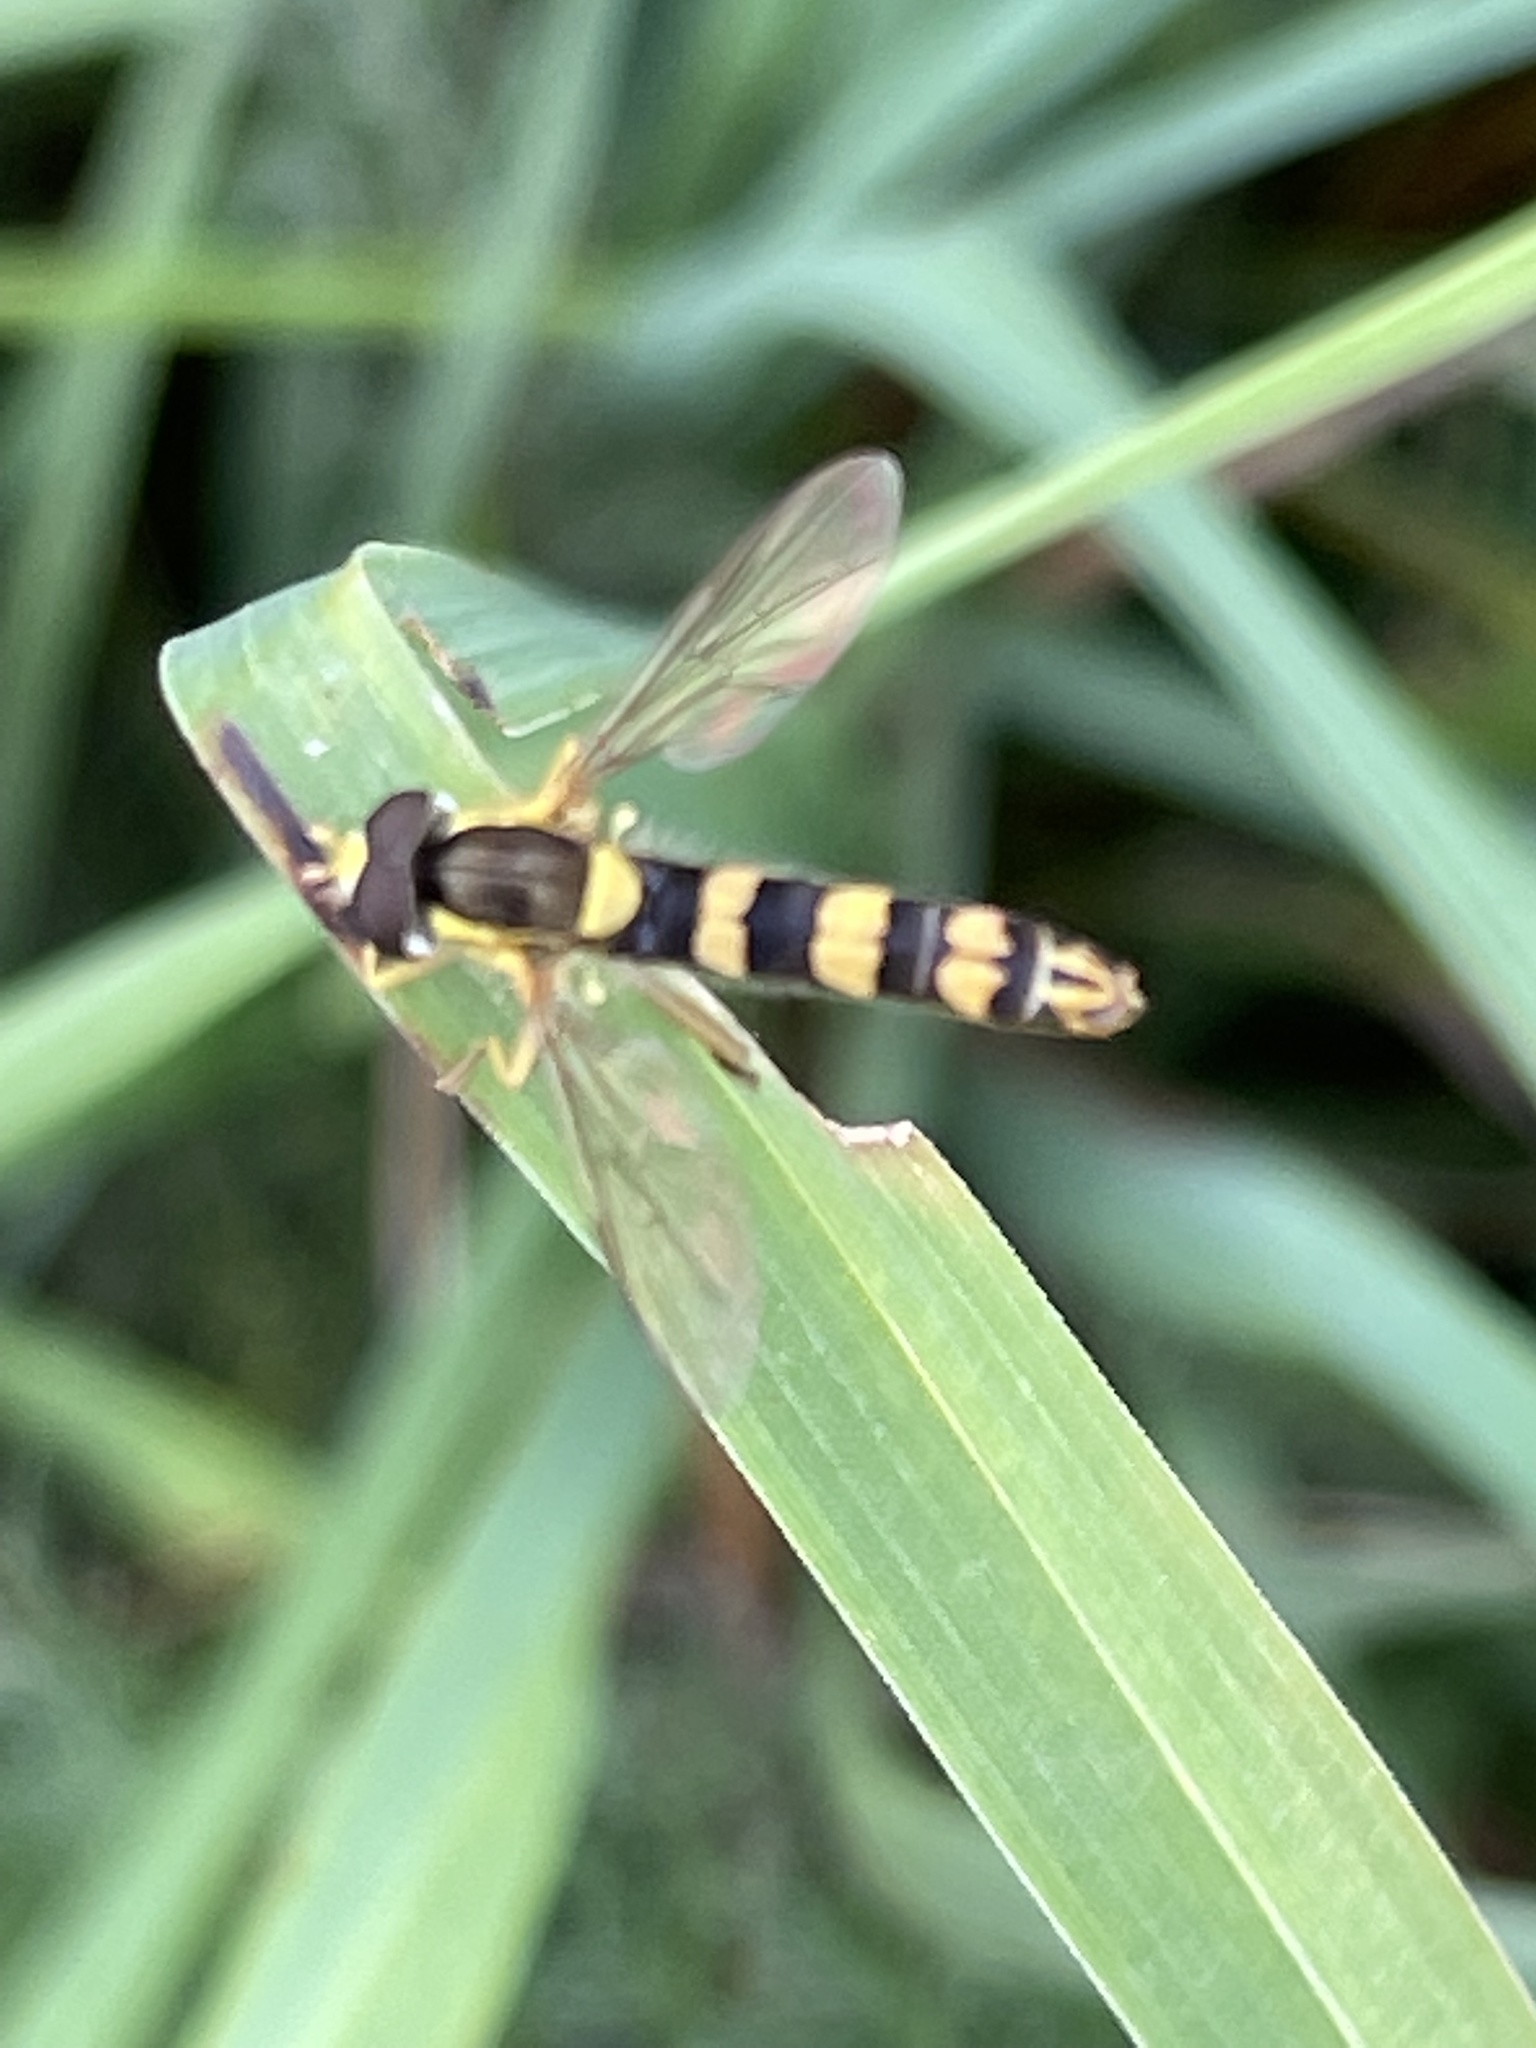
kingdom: Animalia
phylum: Arthropoda
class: Insecta
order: Diptera
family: Syrphidae
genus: Sphaerophoria
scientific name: Sphaerophoria scripta
